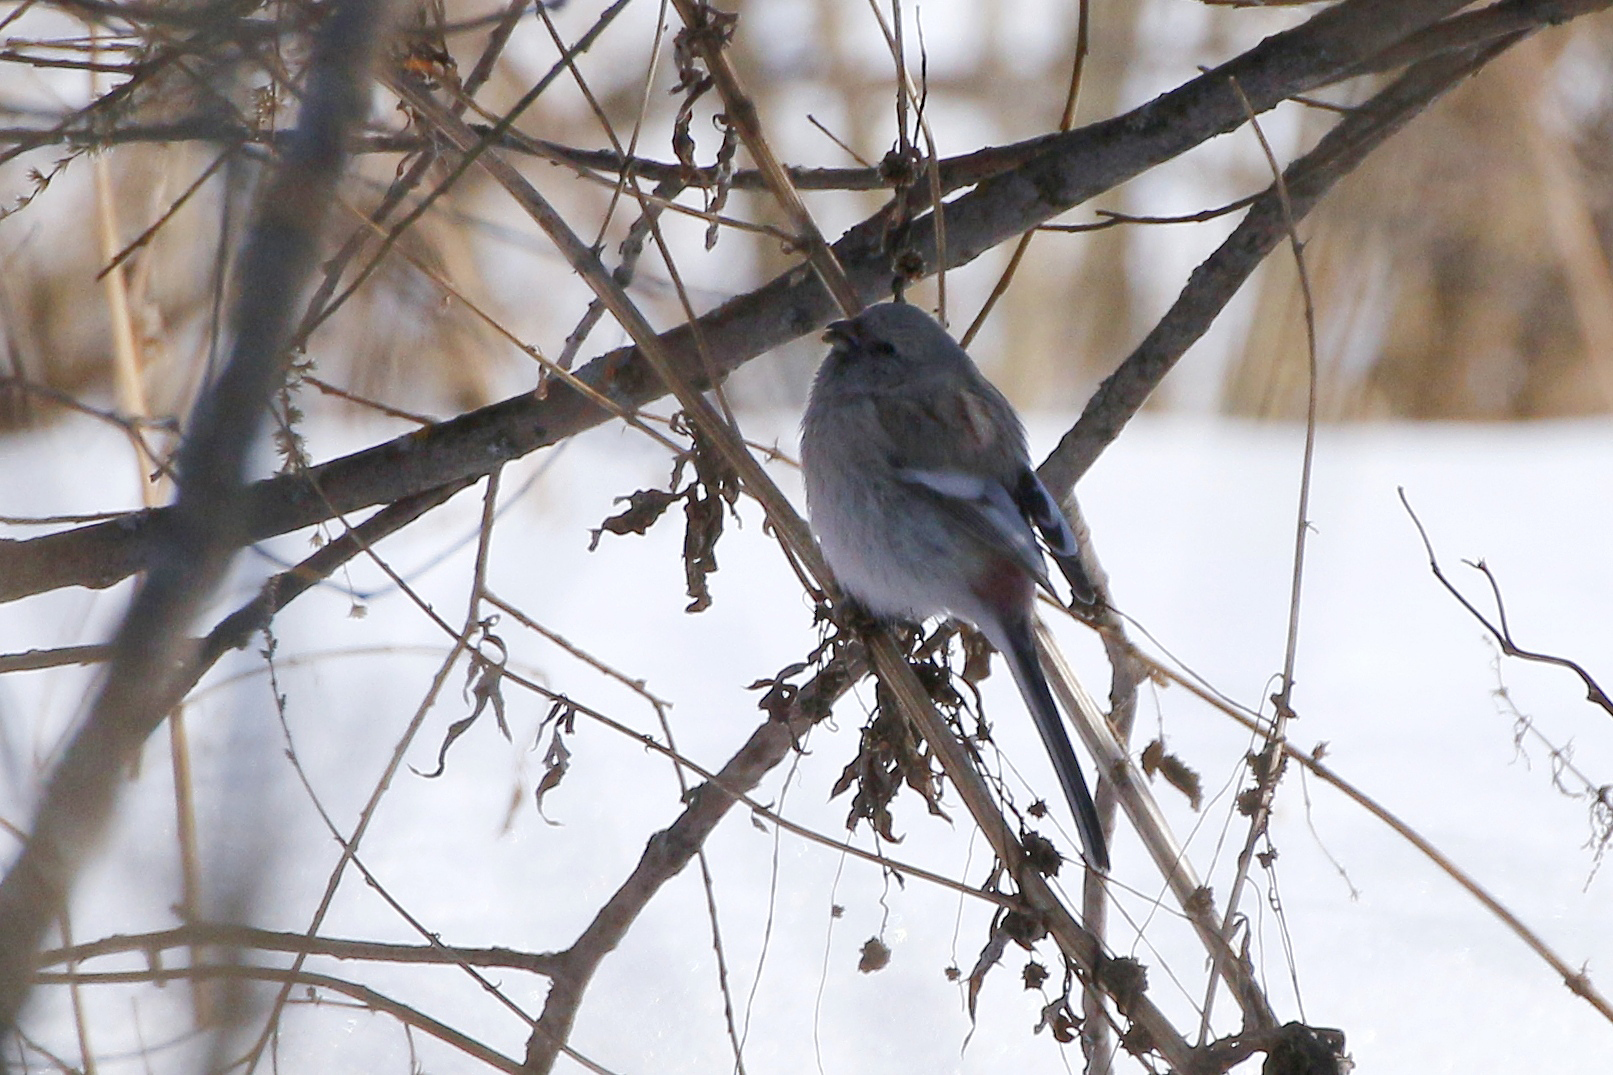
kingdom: Animalia
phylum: Chordata
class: Aves
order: Passeriformes
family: Fringillidae
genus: Carpodacus
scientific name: Carpodacus sibiricus
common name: Long-tailed rosefinch
